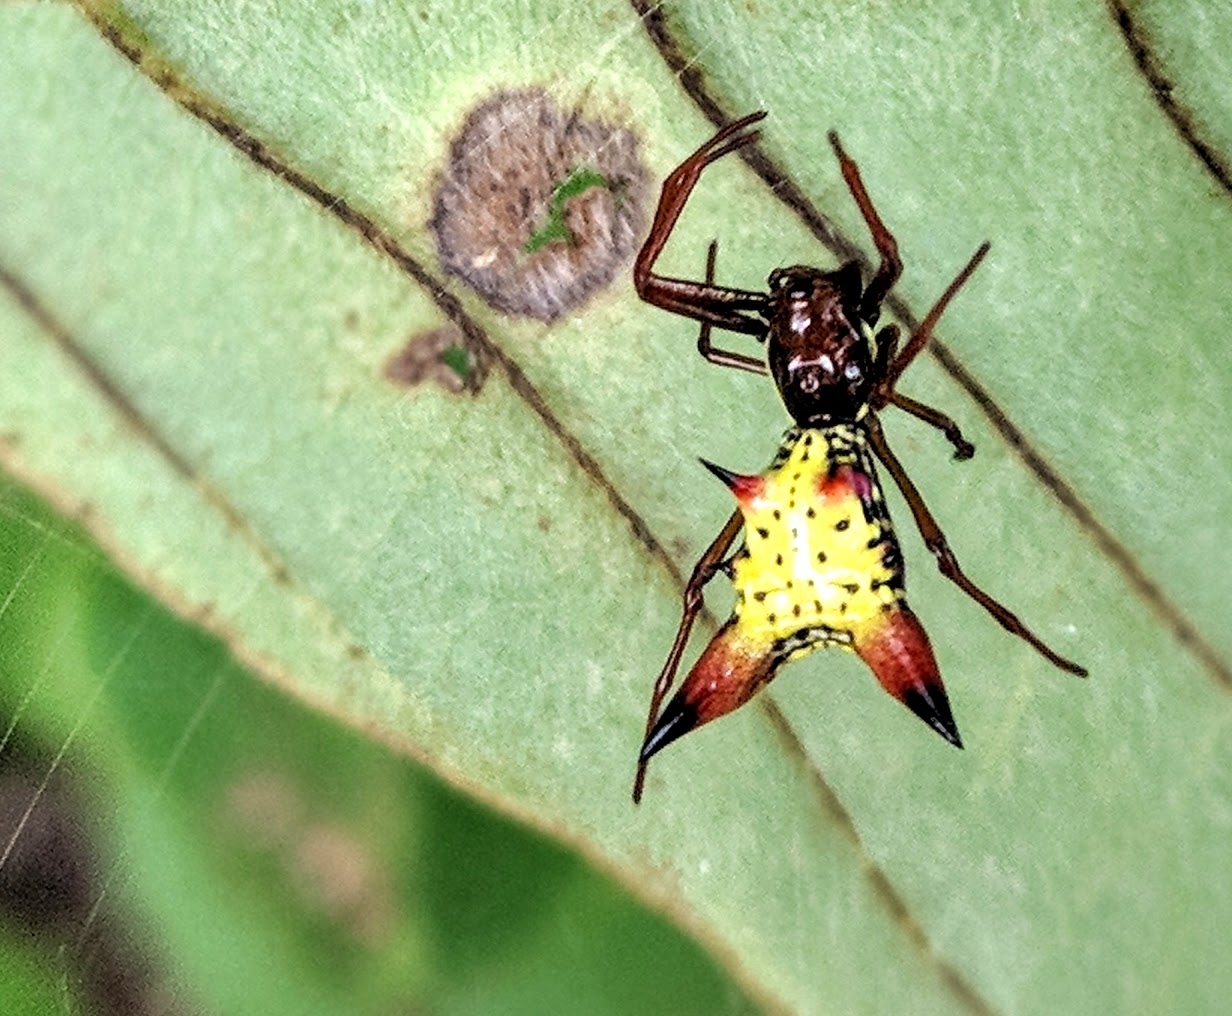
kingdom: Animalia
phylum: Arthropoda
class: Arachnida
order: Araneae
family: Araneidae
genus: Micrathena
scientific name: Micrathena sagittata
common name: Orb weavers
